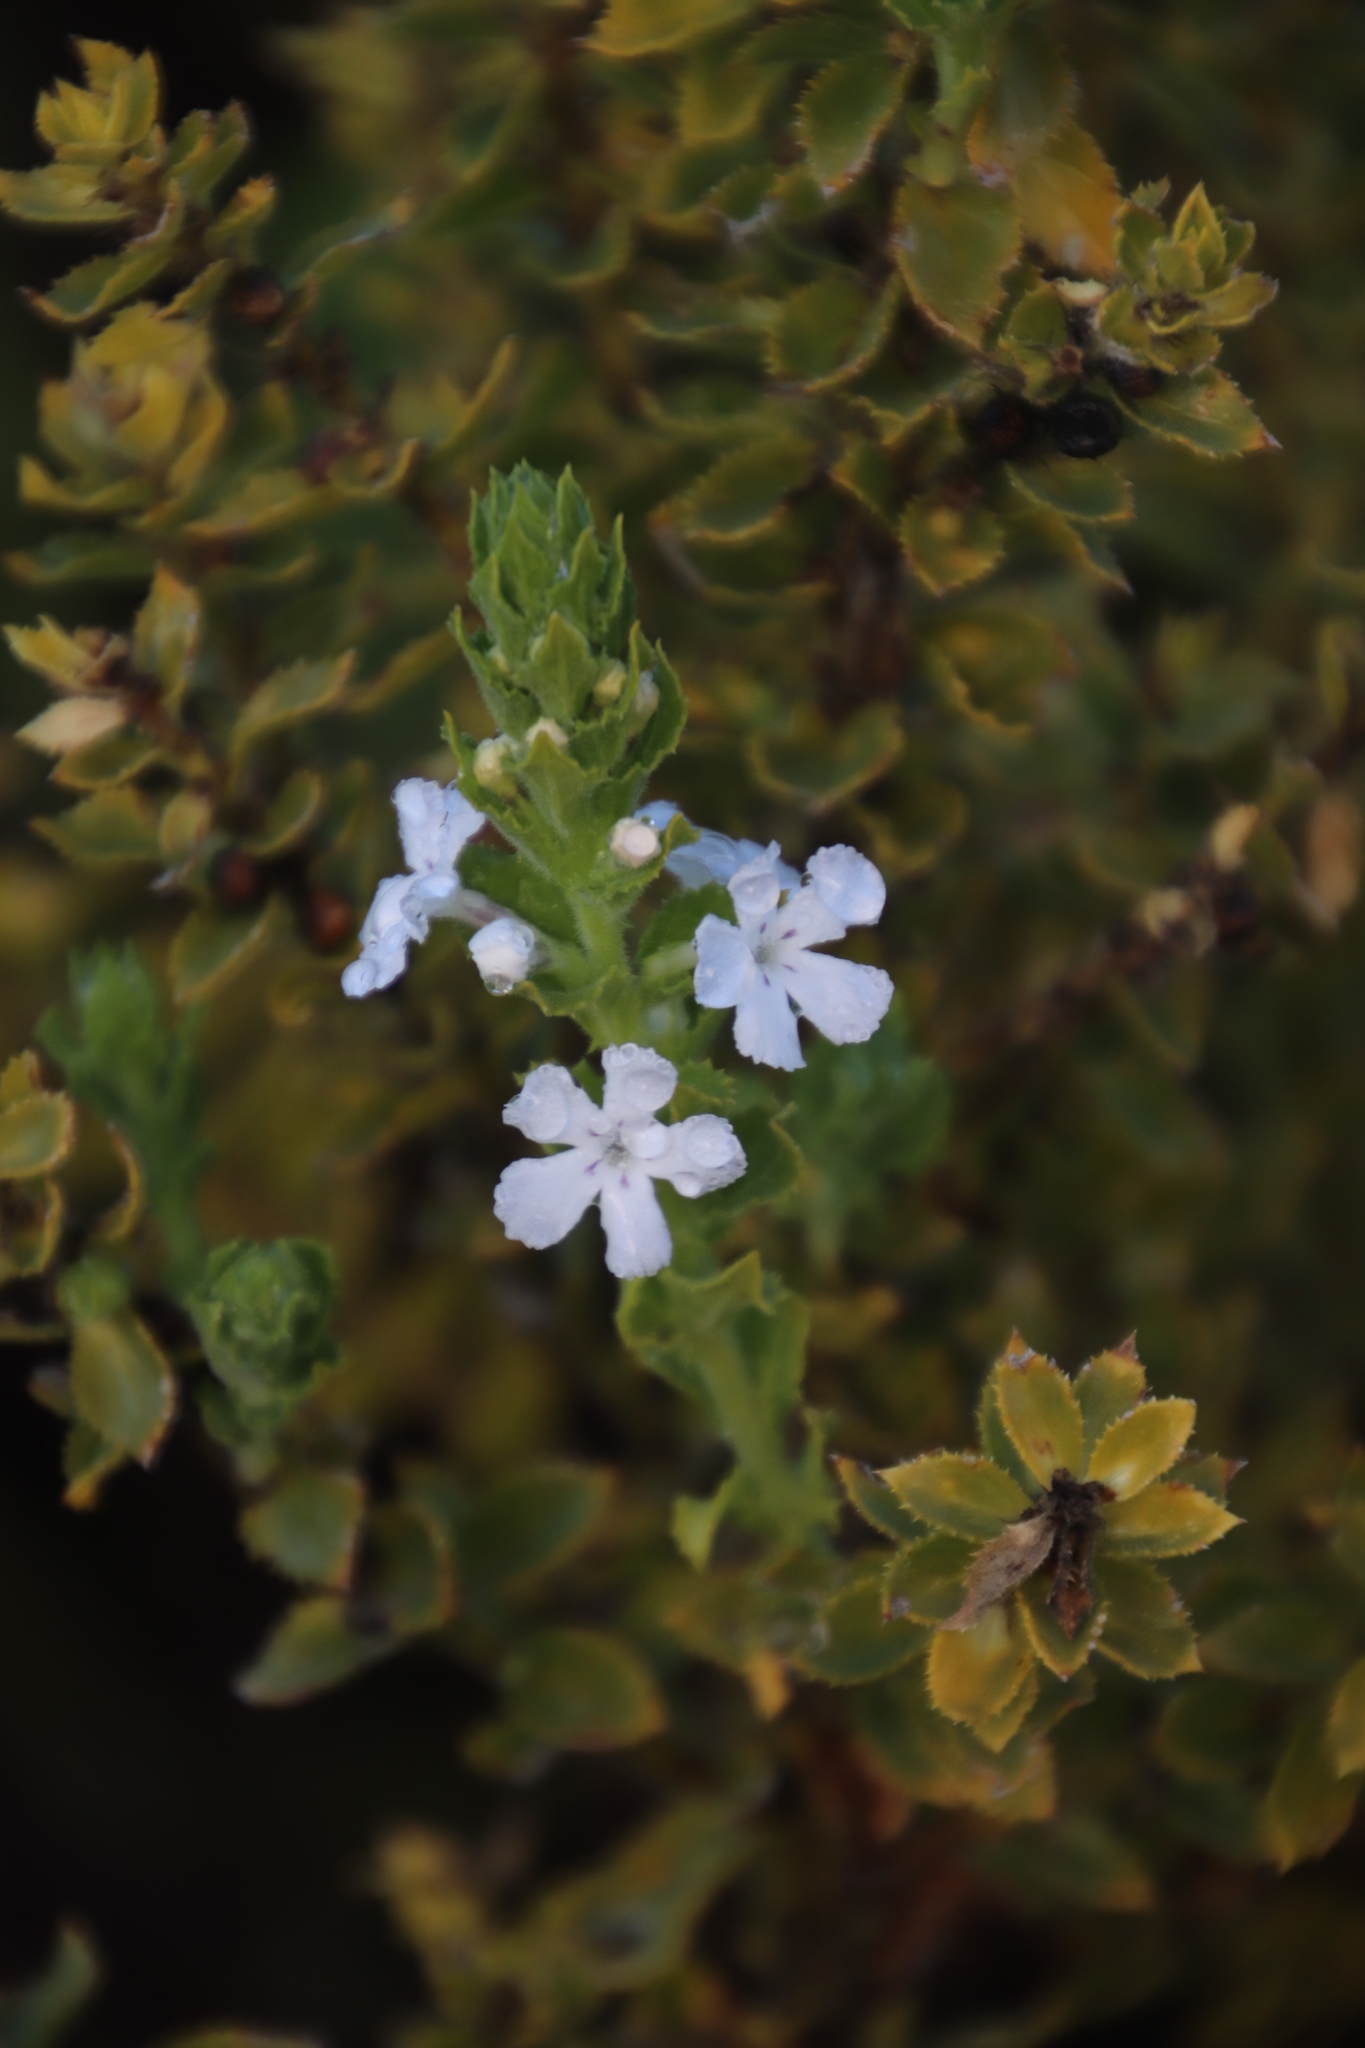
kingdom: Plantae
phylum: Tracheophyta
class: Magnoliopsida
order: Lamiales
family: Scrophulariaceae
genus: Oftia
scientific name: Oftia africana
